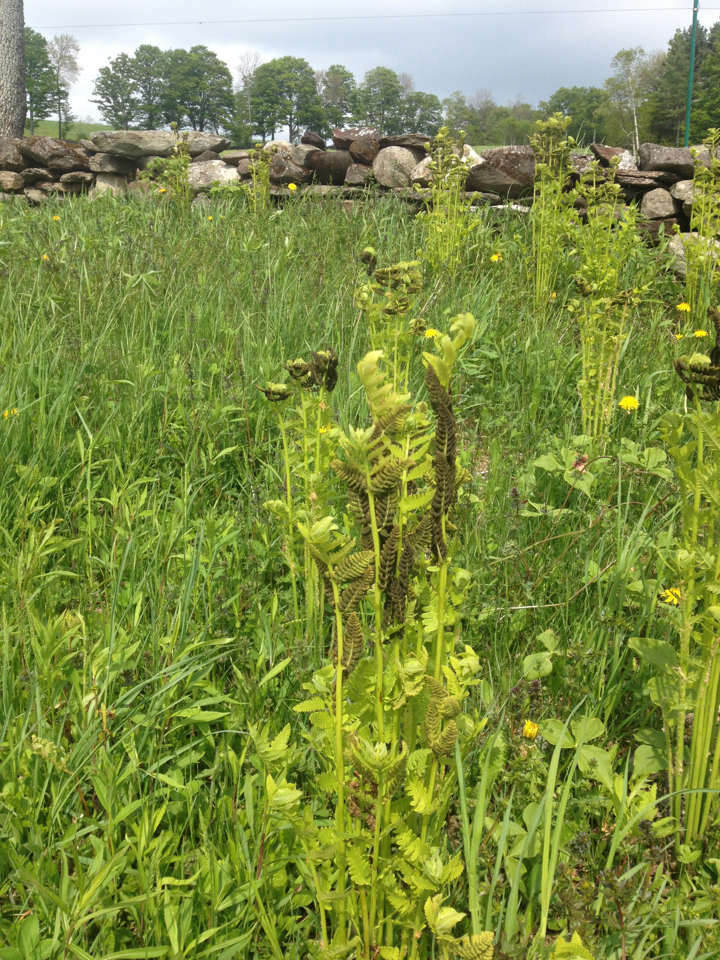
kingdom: Plantae
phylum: Tracheophyta
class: Polypodiopsida
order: Osmundales
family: Osmundaceae
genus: Claytosmunda
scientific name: Claytosmunda claytoniana
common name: Clayton's fern
